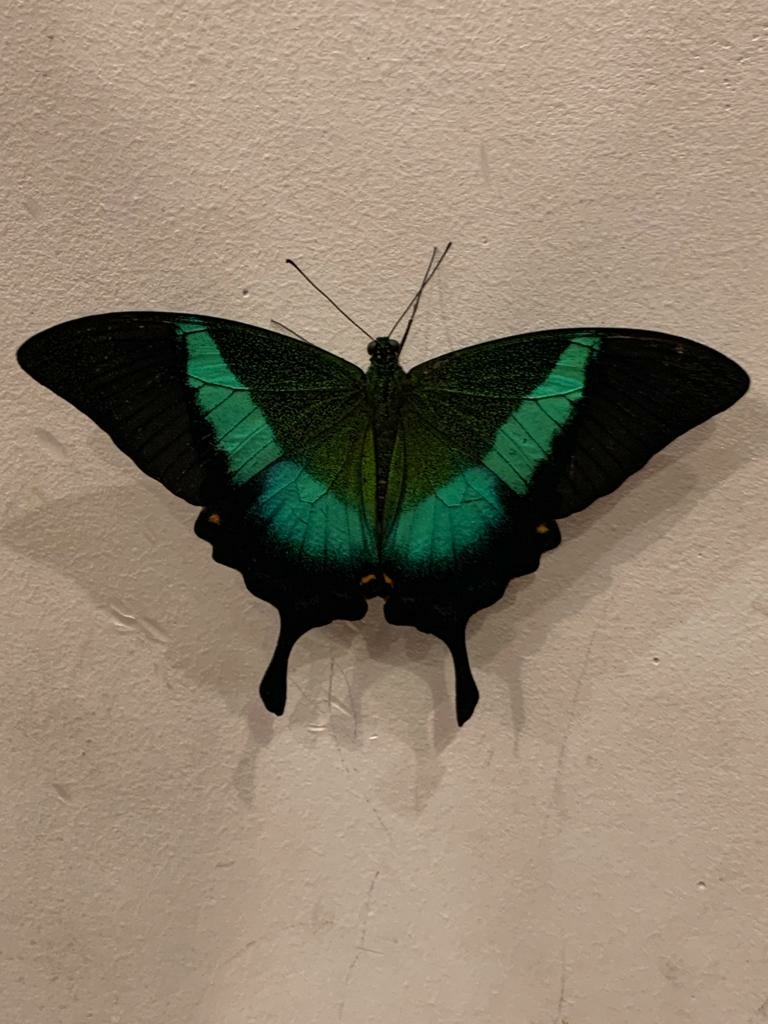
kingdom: Animalia
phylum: Arthropoda
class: Insecta
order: Lepidoptera
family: Papilionidae
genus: Papilio
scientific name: Papilio buddha
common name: Malabar banded peacock
